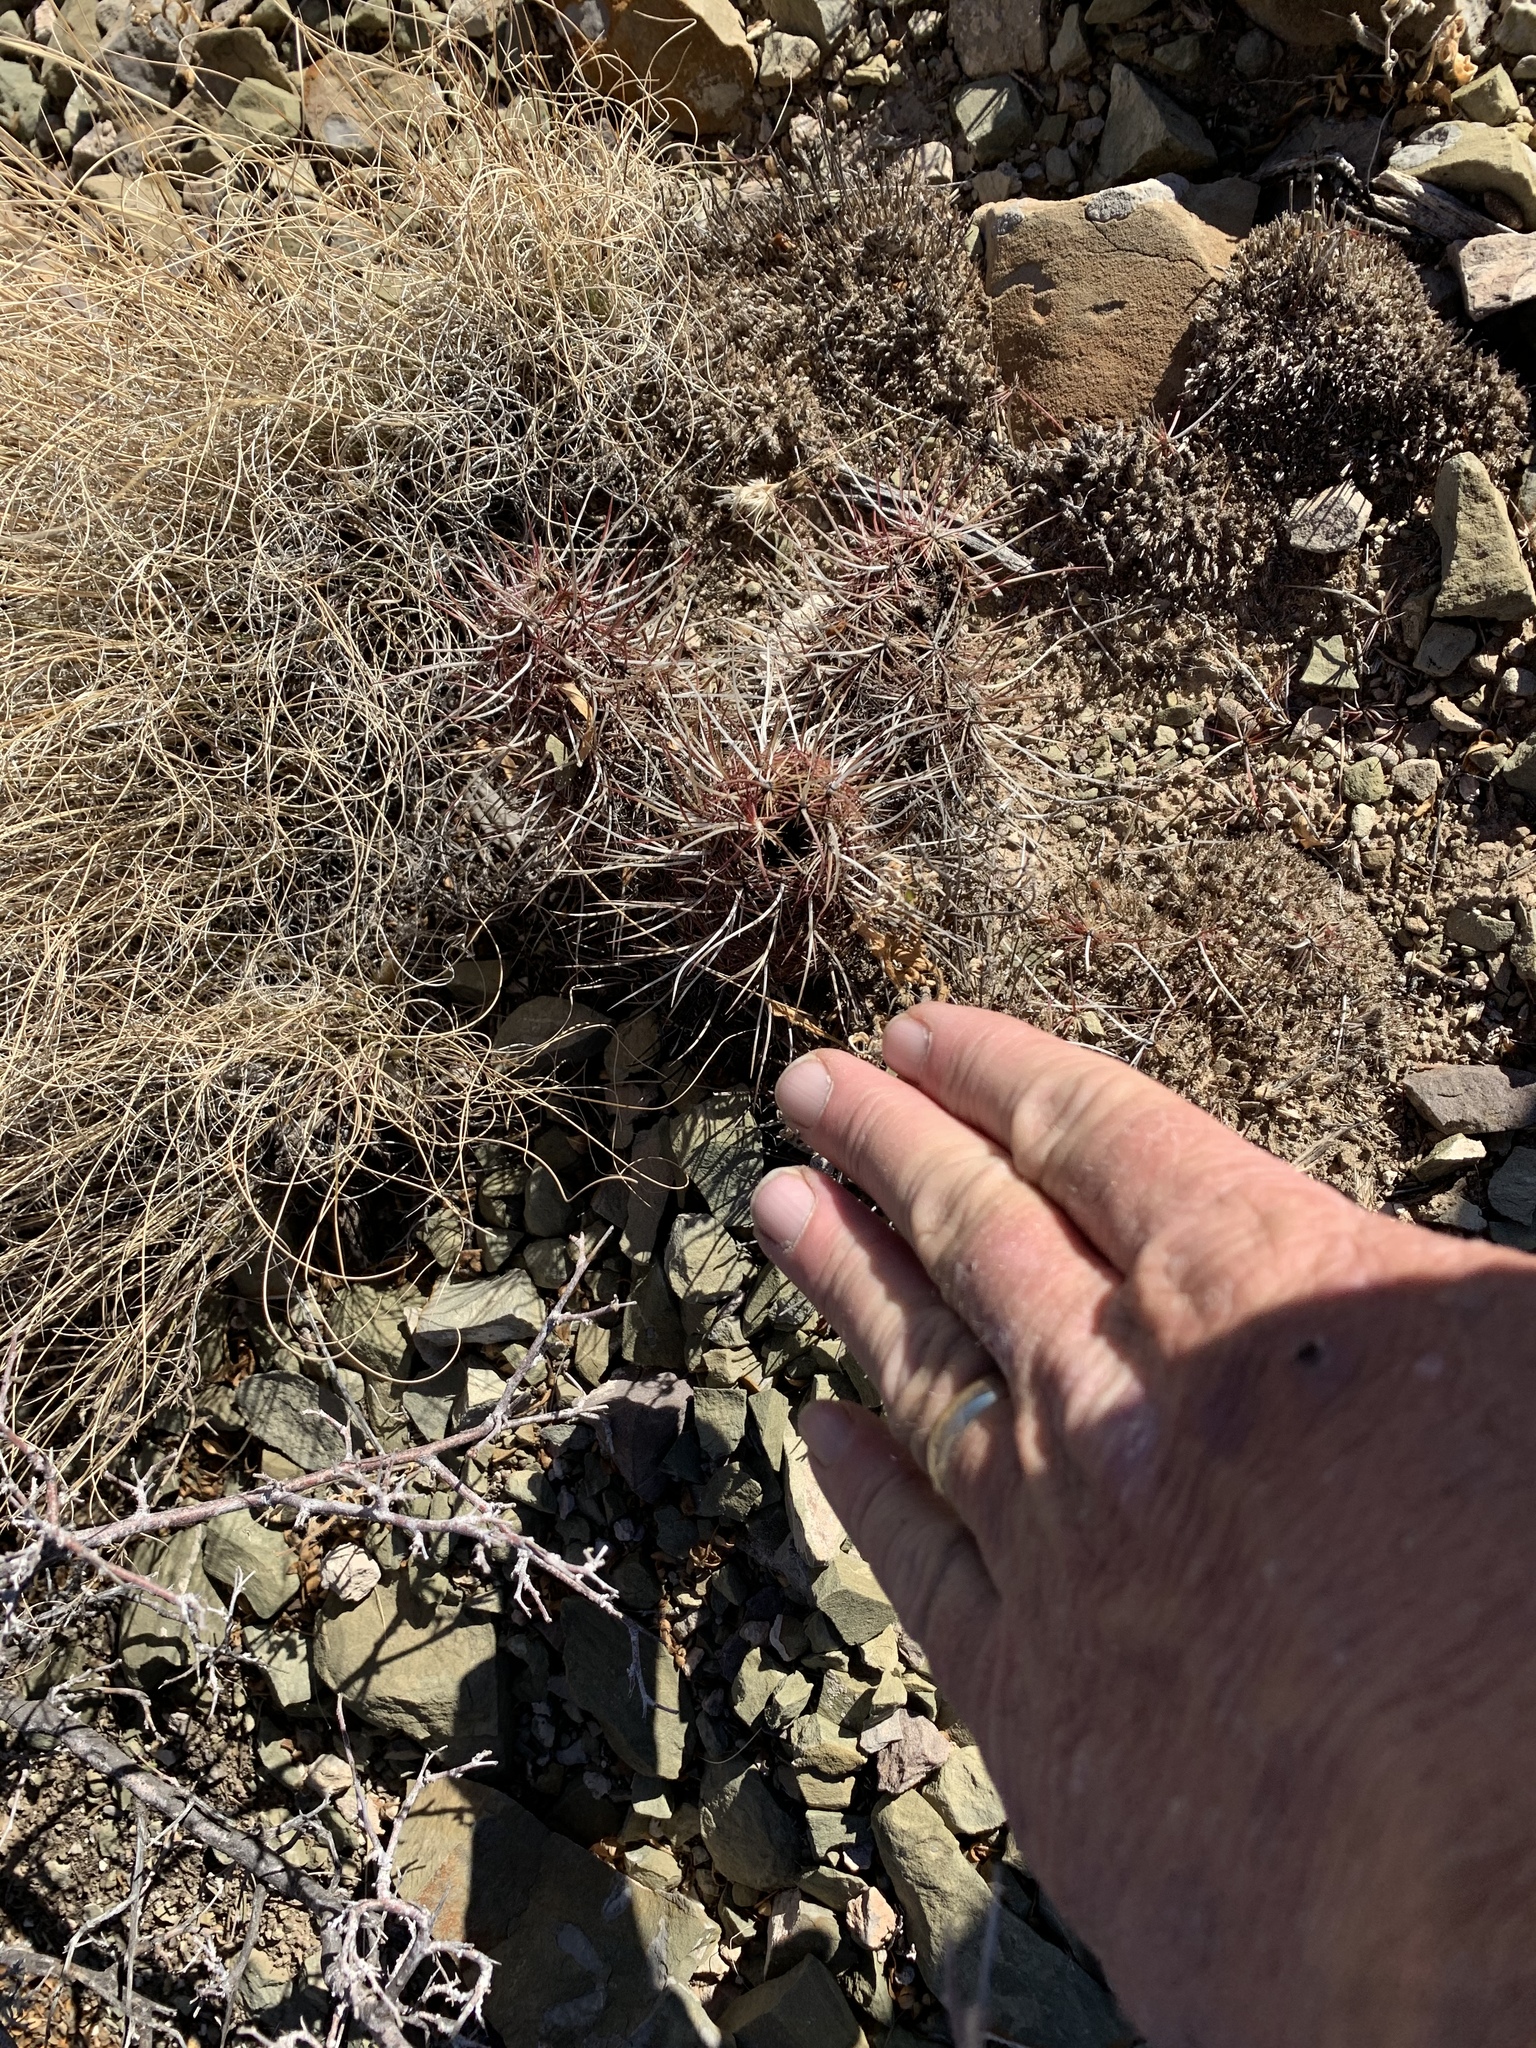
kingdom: Plantae
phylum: Tracheophyta
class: Magnoliopsida
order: Caryophyllales
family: Cactaceae
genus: Echinocereus
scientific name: Echinocereus viridiflorus
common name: Nylon hedgehog cactus
